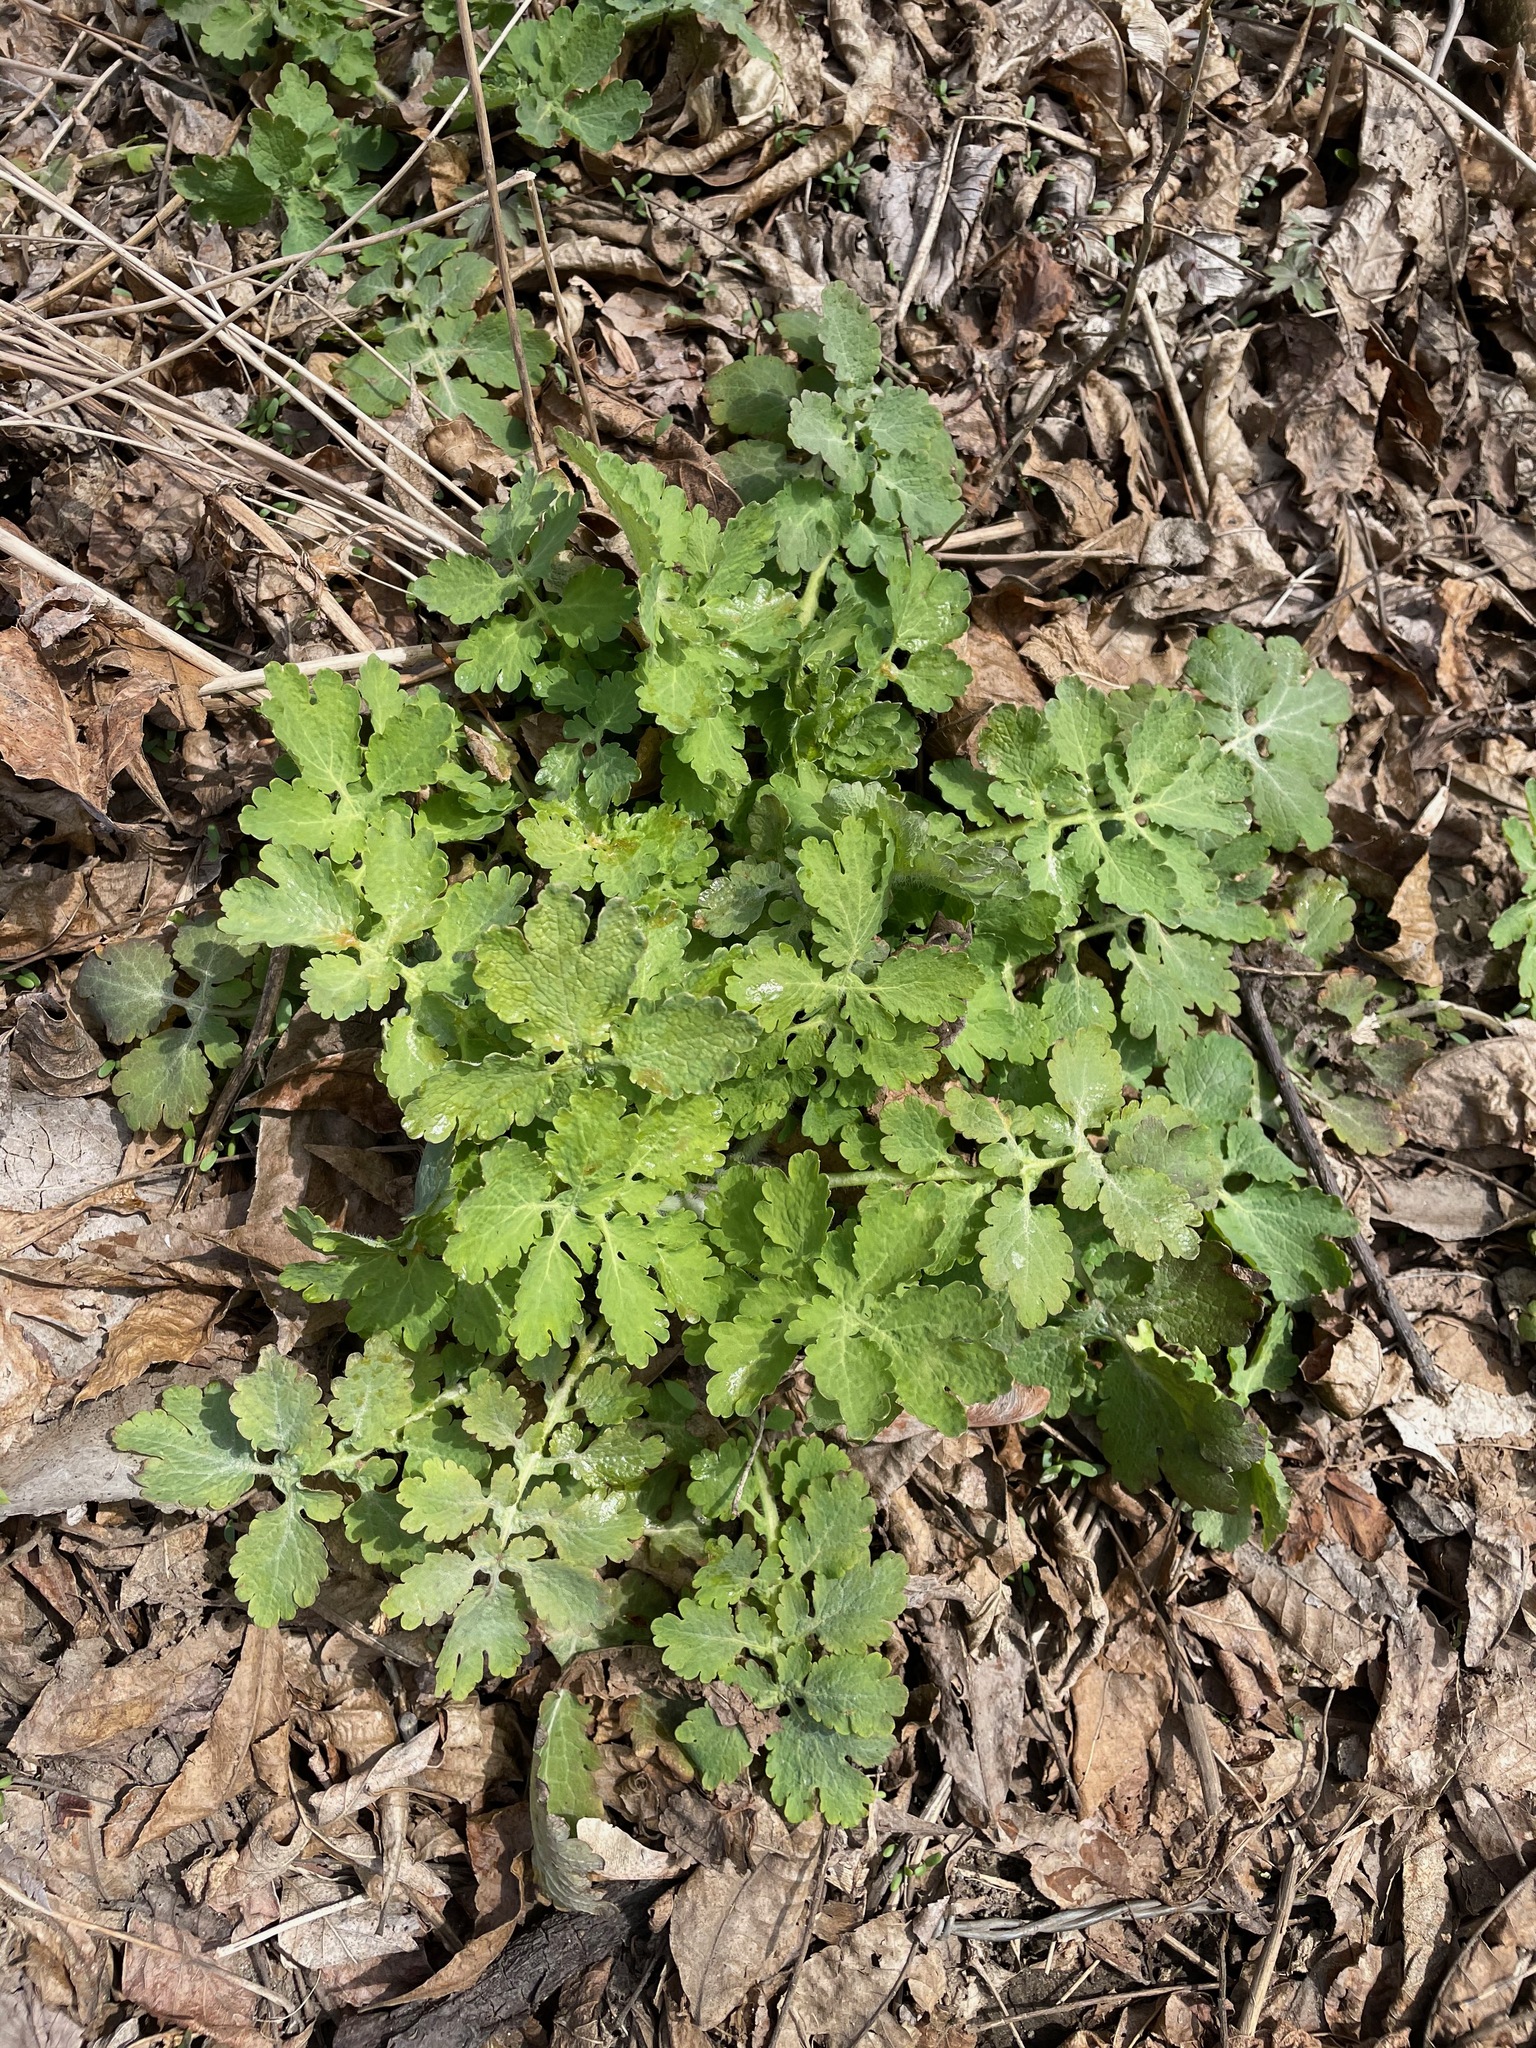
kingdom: Plantae
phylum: Tracheophyta
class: Magnoliopsida
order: Ranunculales
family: Papaveraceae
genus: Chelidonium
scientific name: Chelidonium majus
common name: Greater celandine
